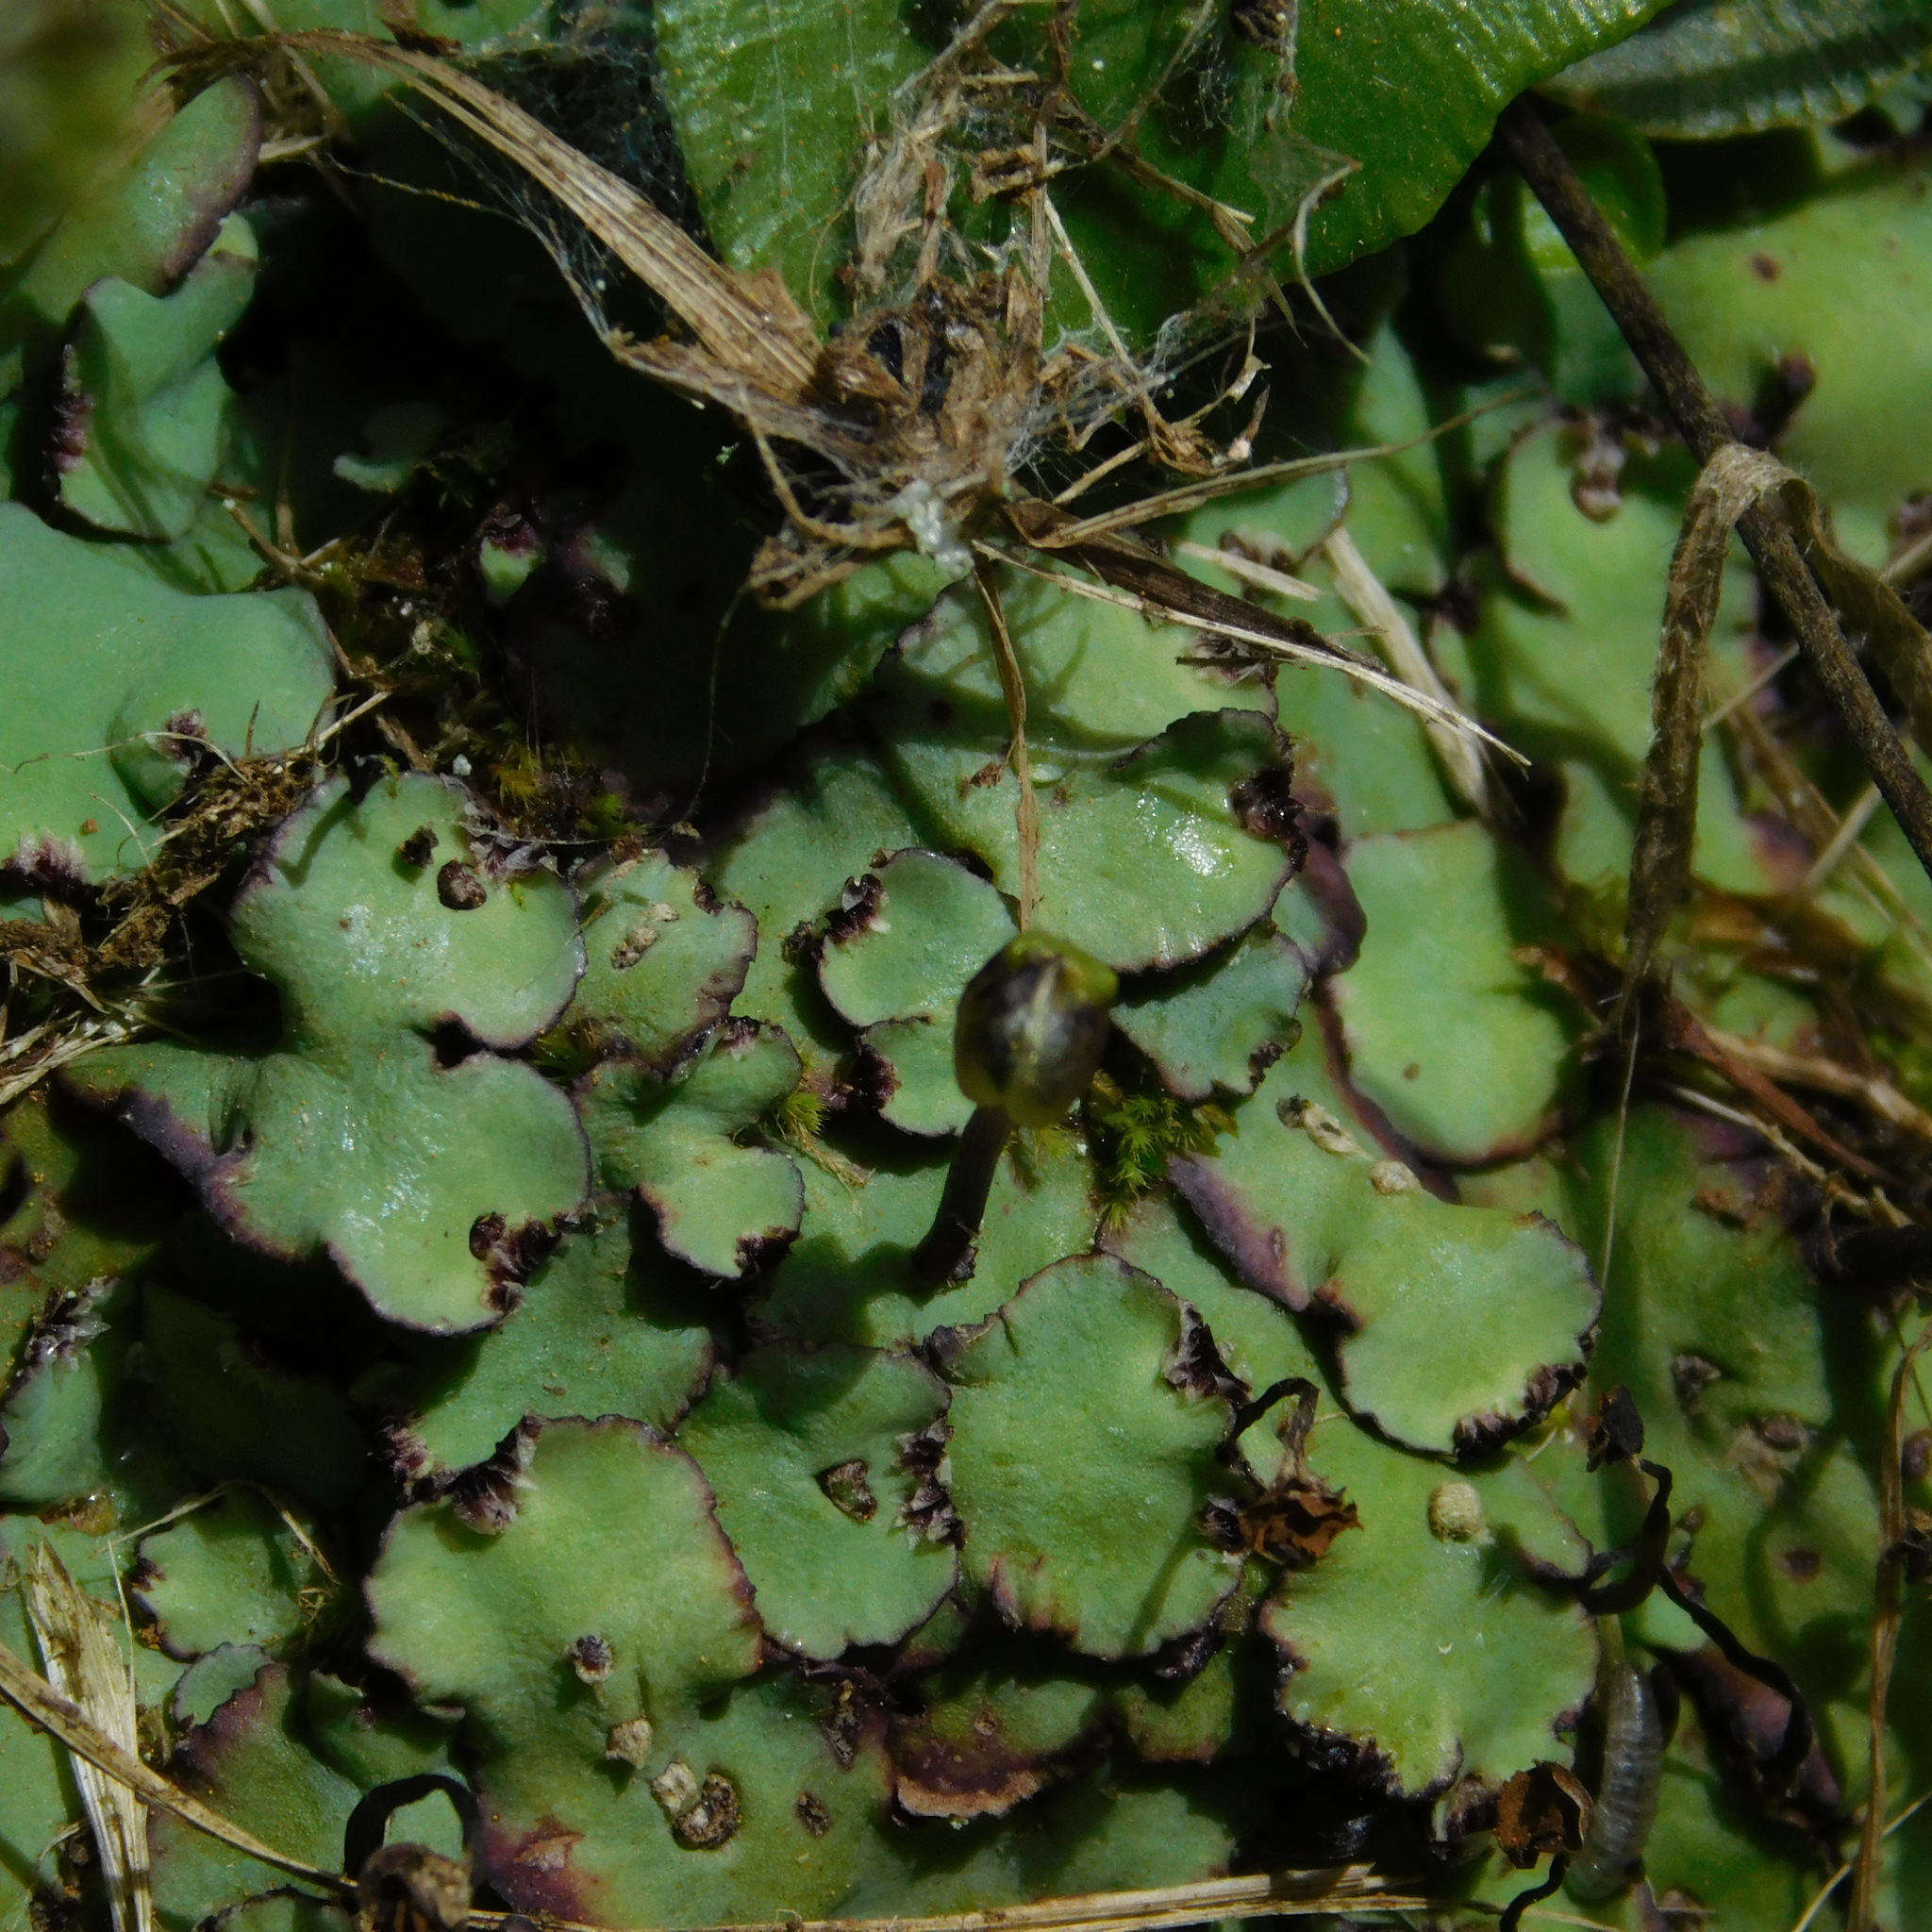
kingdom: Plantae
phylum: Marchantiophyta
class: Marchantiopsida
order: Marchantiales
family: Aytoniaceae
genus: Plagiochasma
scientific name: Plagiochasma rupestre
